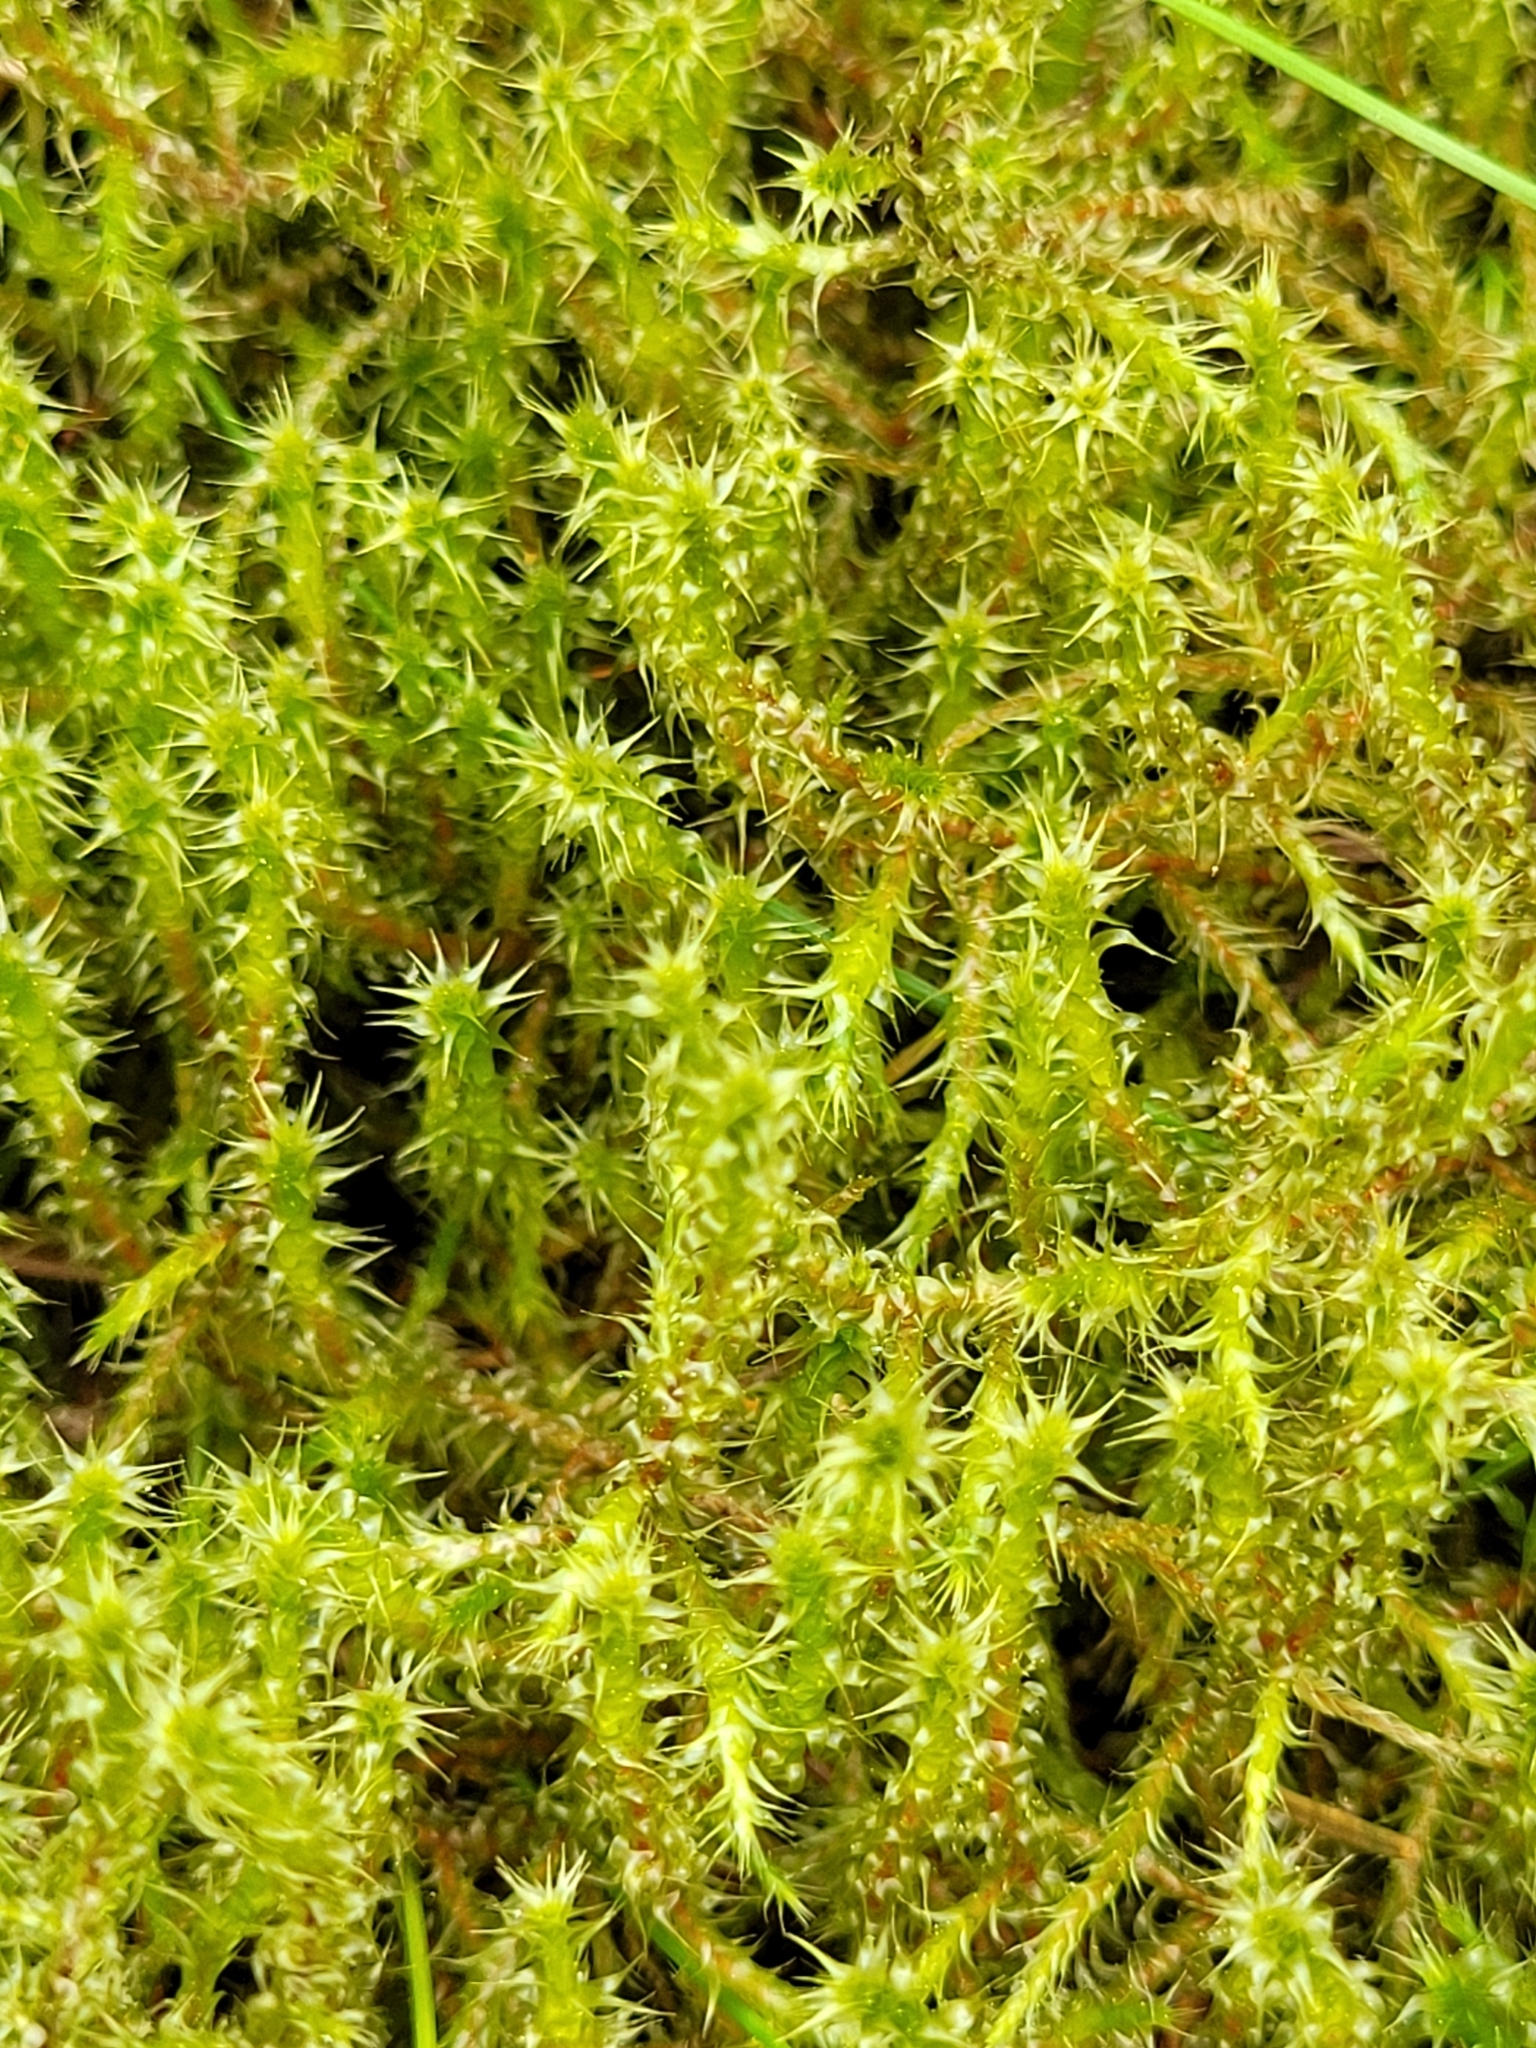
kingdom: Plantae
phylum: Bryophyta
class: Bryopsida
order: Hypnales
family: Hylocomiaceae
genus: Rhytidiadelphus
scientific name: Rhytidiadelphus squarrosus
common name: Springy turf-moss
